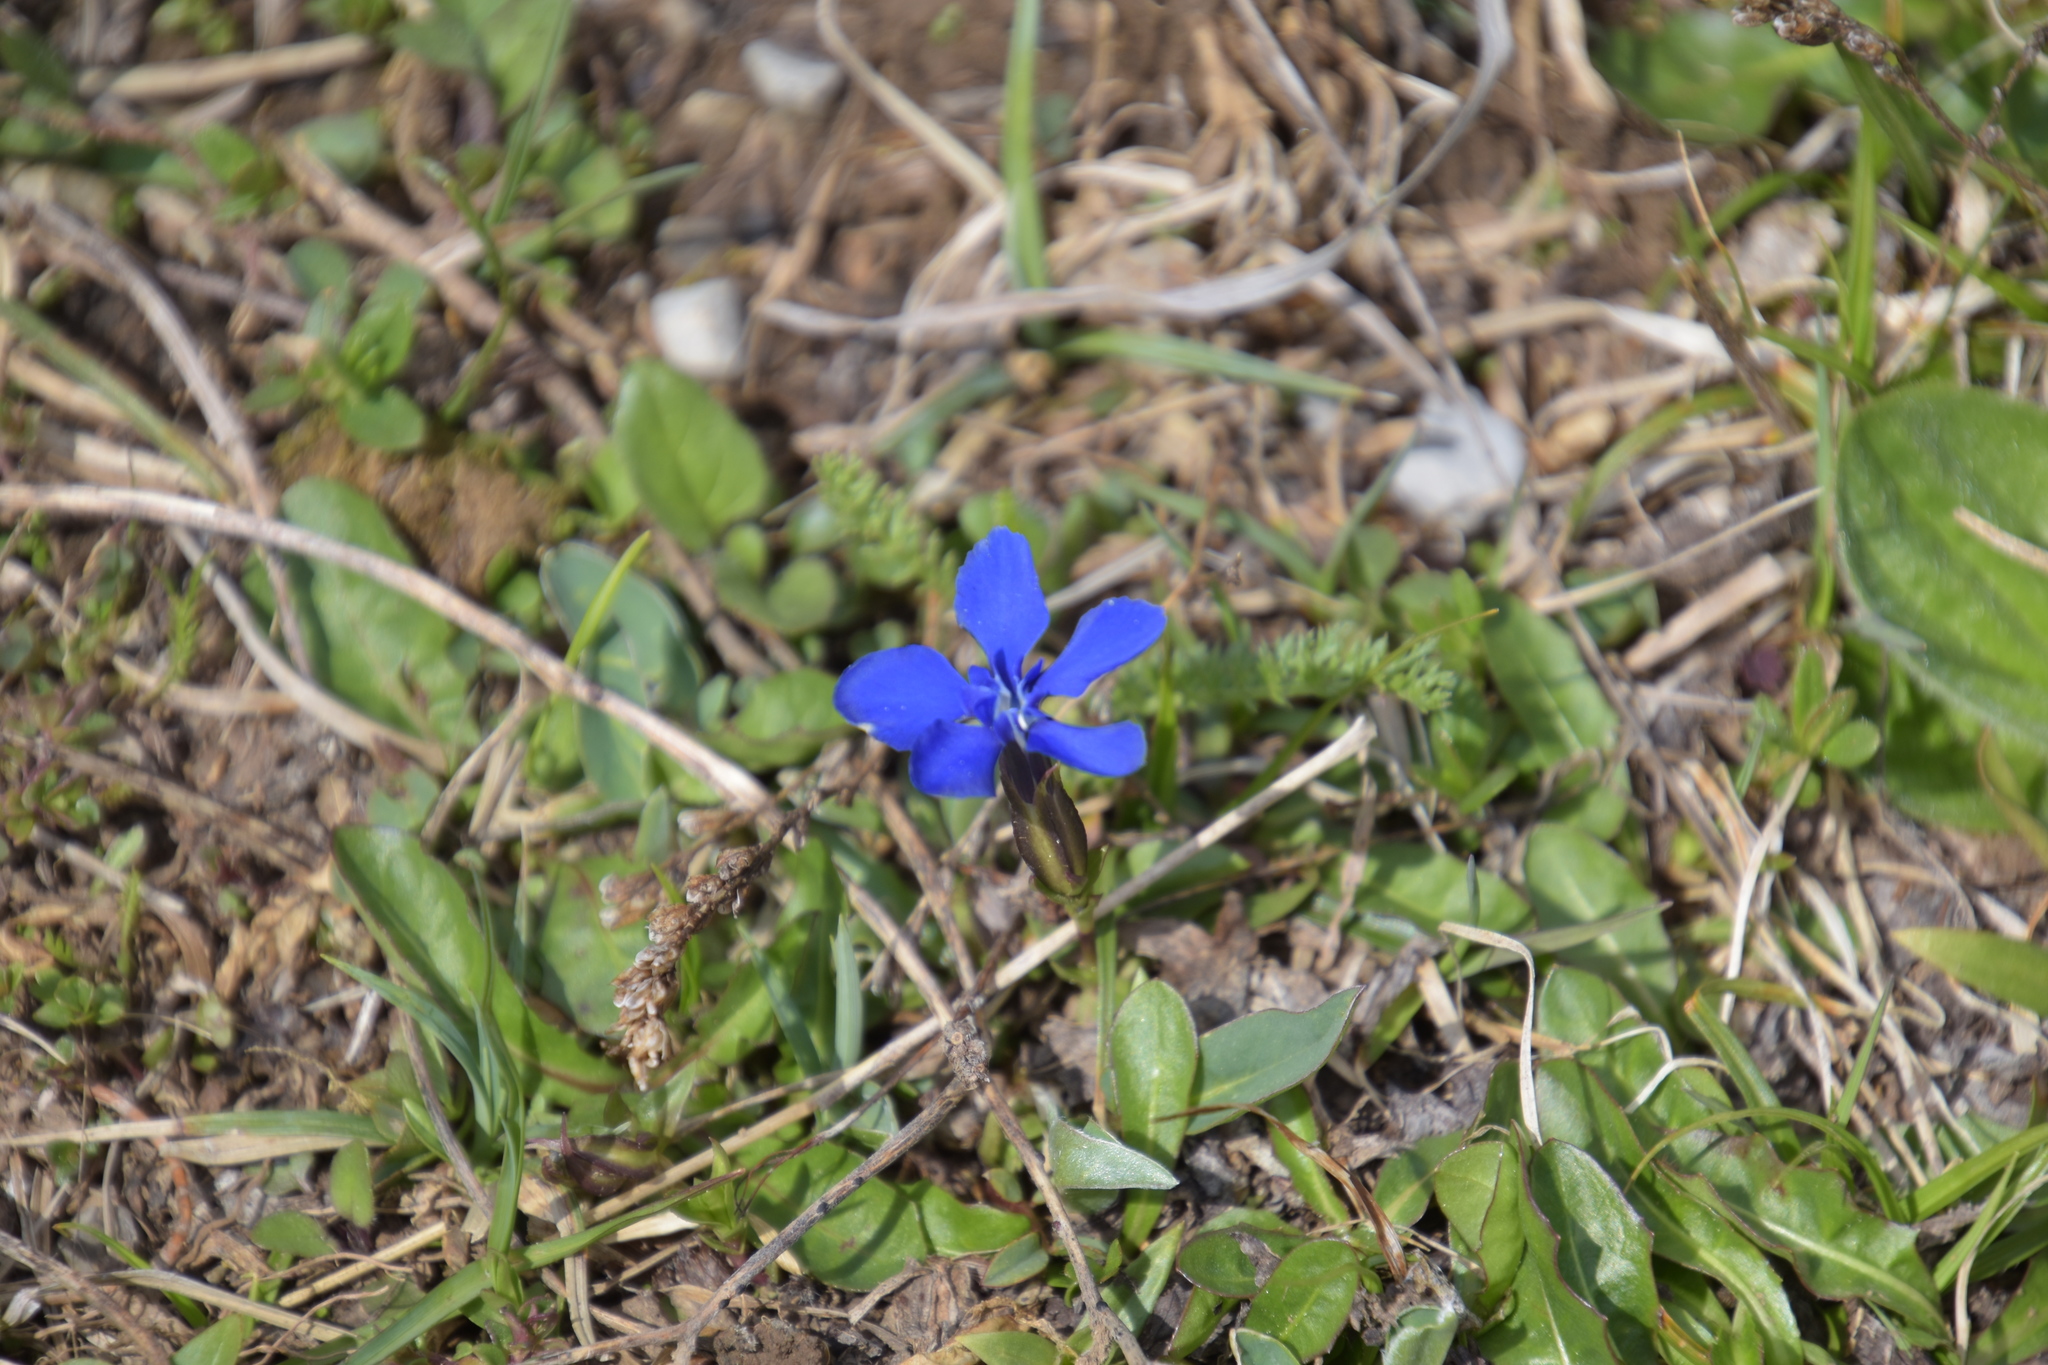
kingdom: Plantae
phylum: Tracheophyta
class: Magnoliopsida
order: Gentianales
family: Gentianaceae
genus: Gentiana
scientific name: Gentiana verna
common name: Spring gentian
